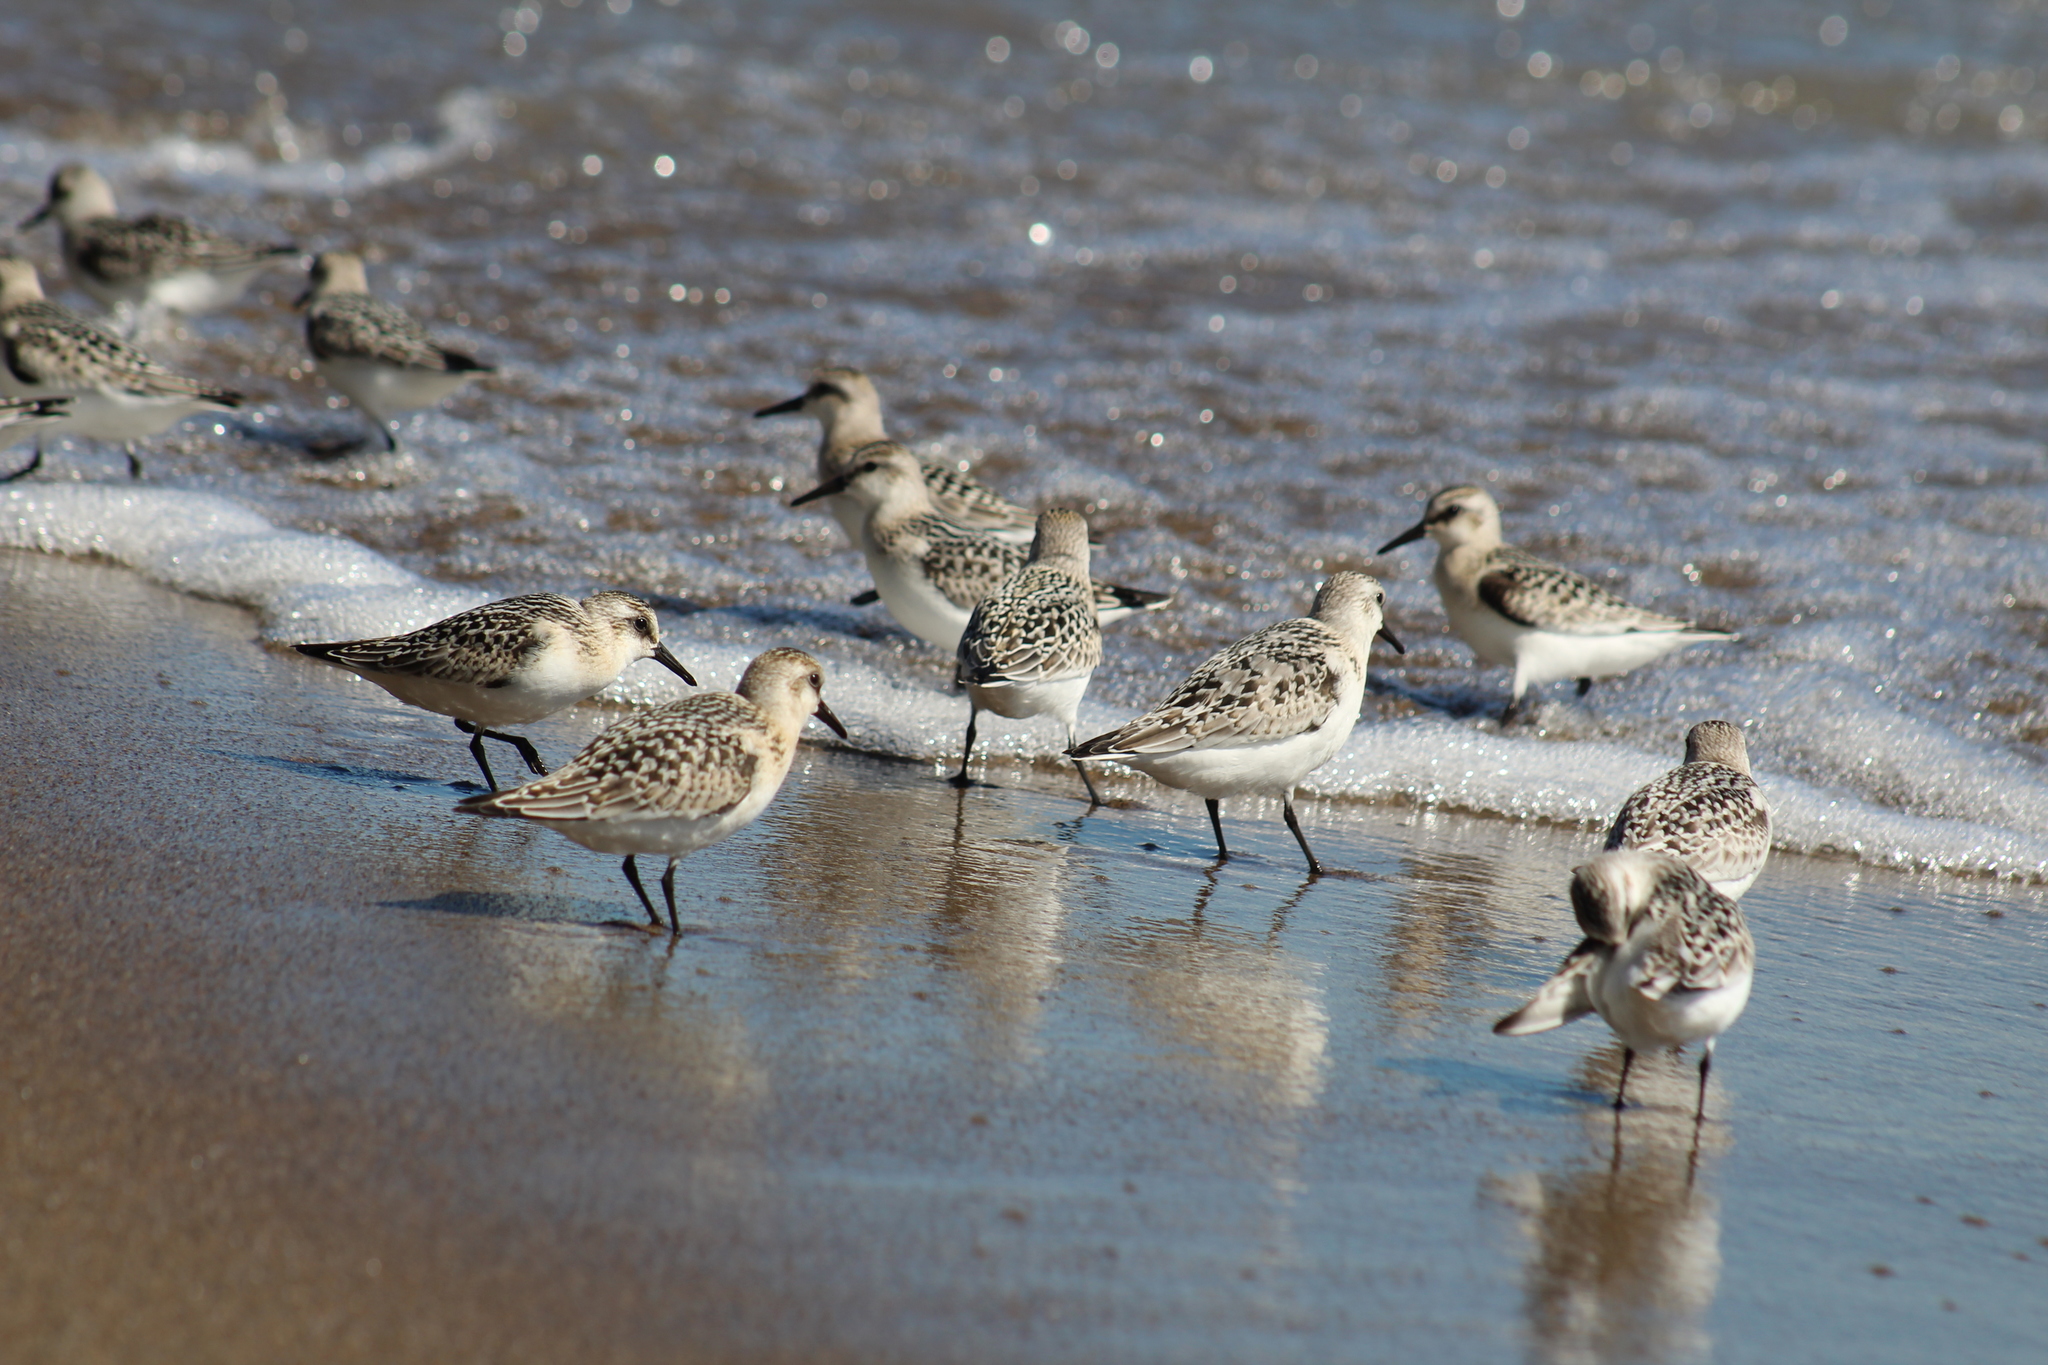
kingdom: Animalia
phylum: Chordata
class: Aves
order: Charadriiformes
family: Scolopacidae
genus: Calidris
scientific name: Calidris alba
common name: Sanderling
